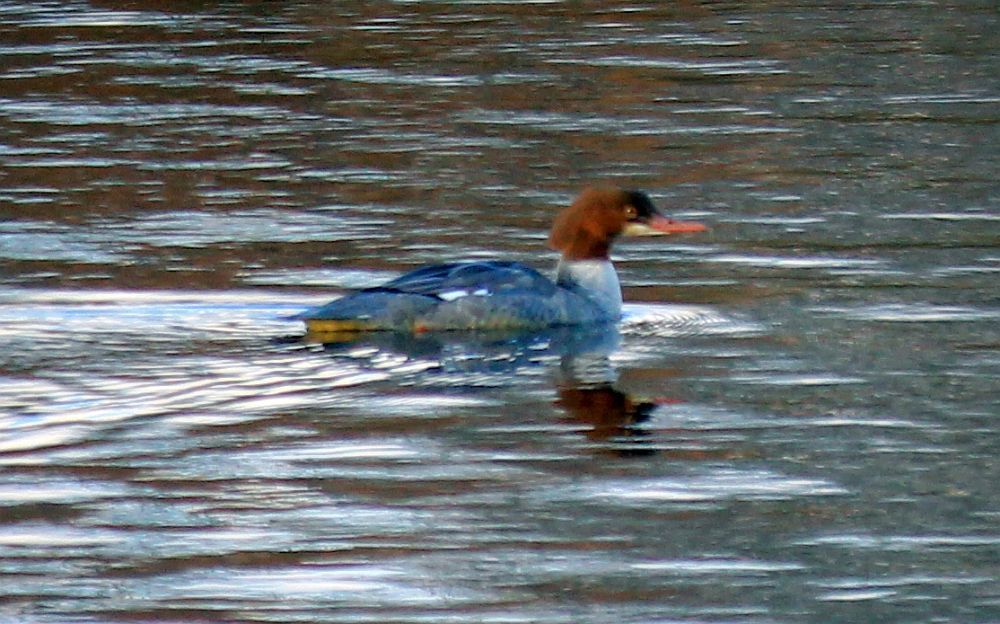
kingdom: Animalia
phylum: Chordata
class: Aves
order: Anseriformes
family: Anatidae
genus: Mergus
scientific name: Mergus merganser
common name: Common merganser
